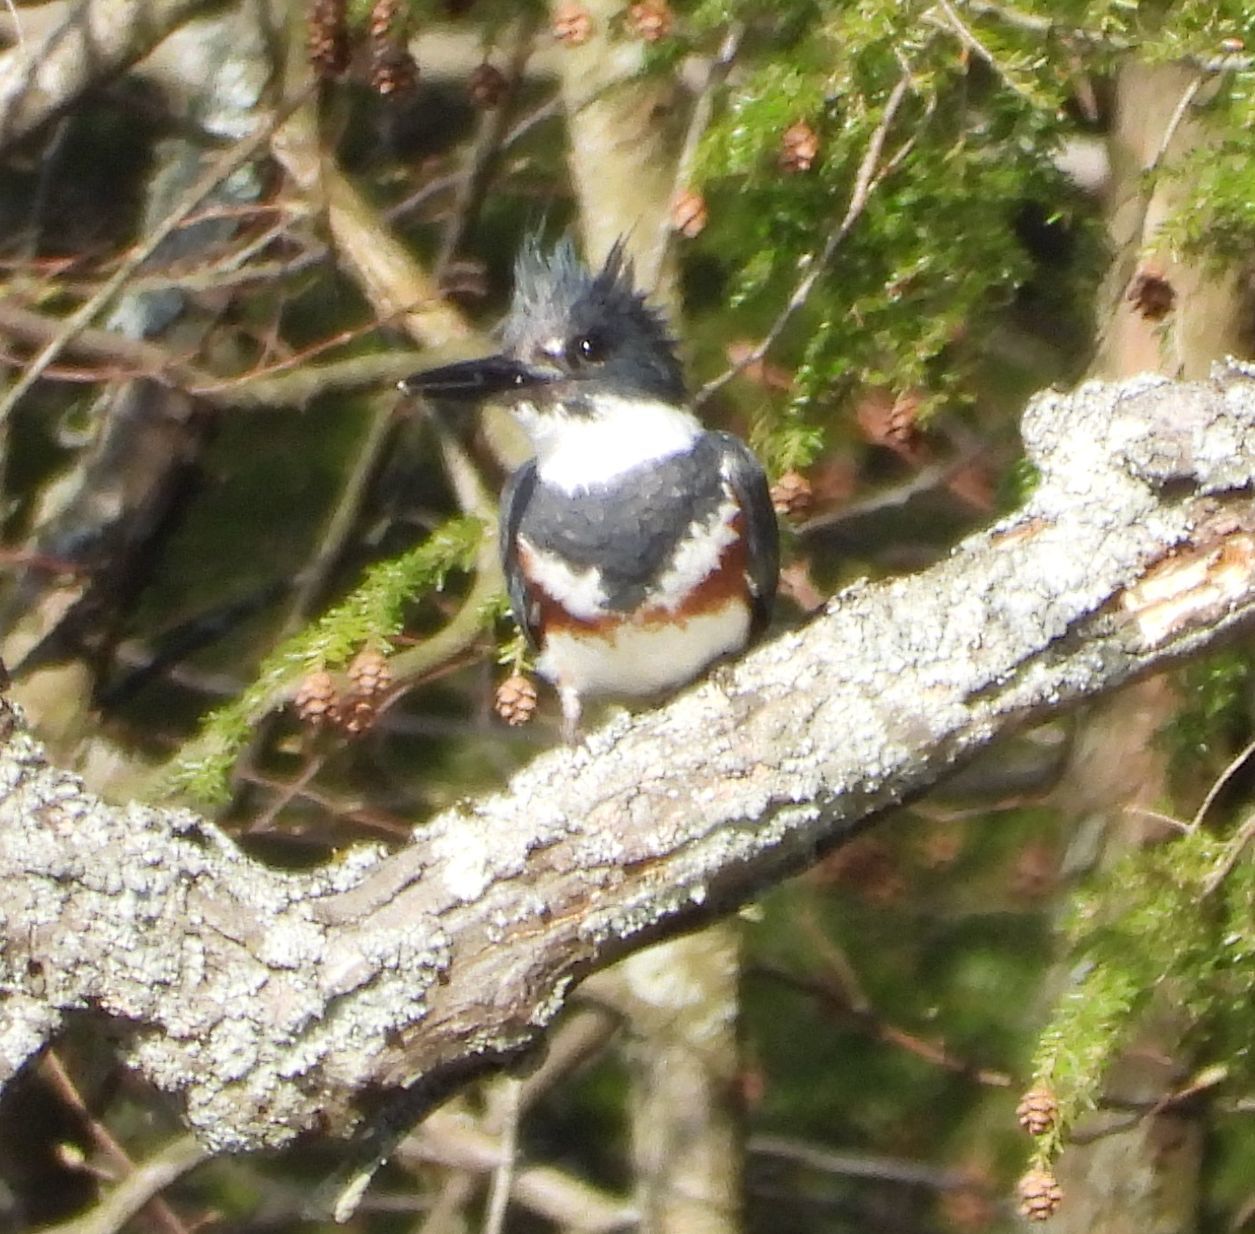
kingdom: Animalia
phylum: Chordata
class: Aves
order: Coraciiformes
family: Alcedinidae
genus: Megaceryle
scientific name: Megaceryle alcyon
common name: Belted kingfisher
